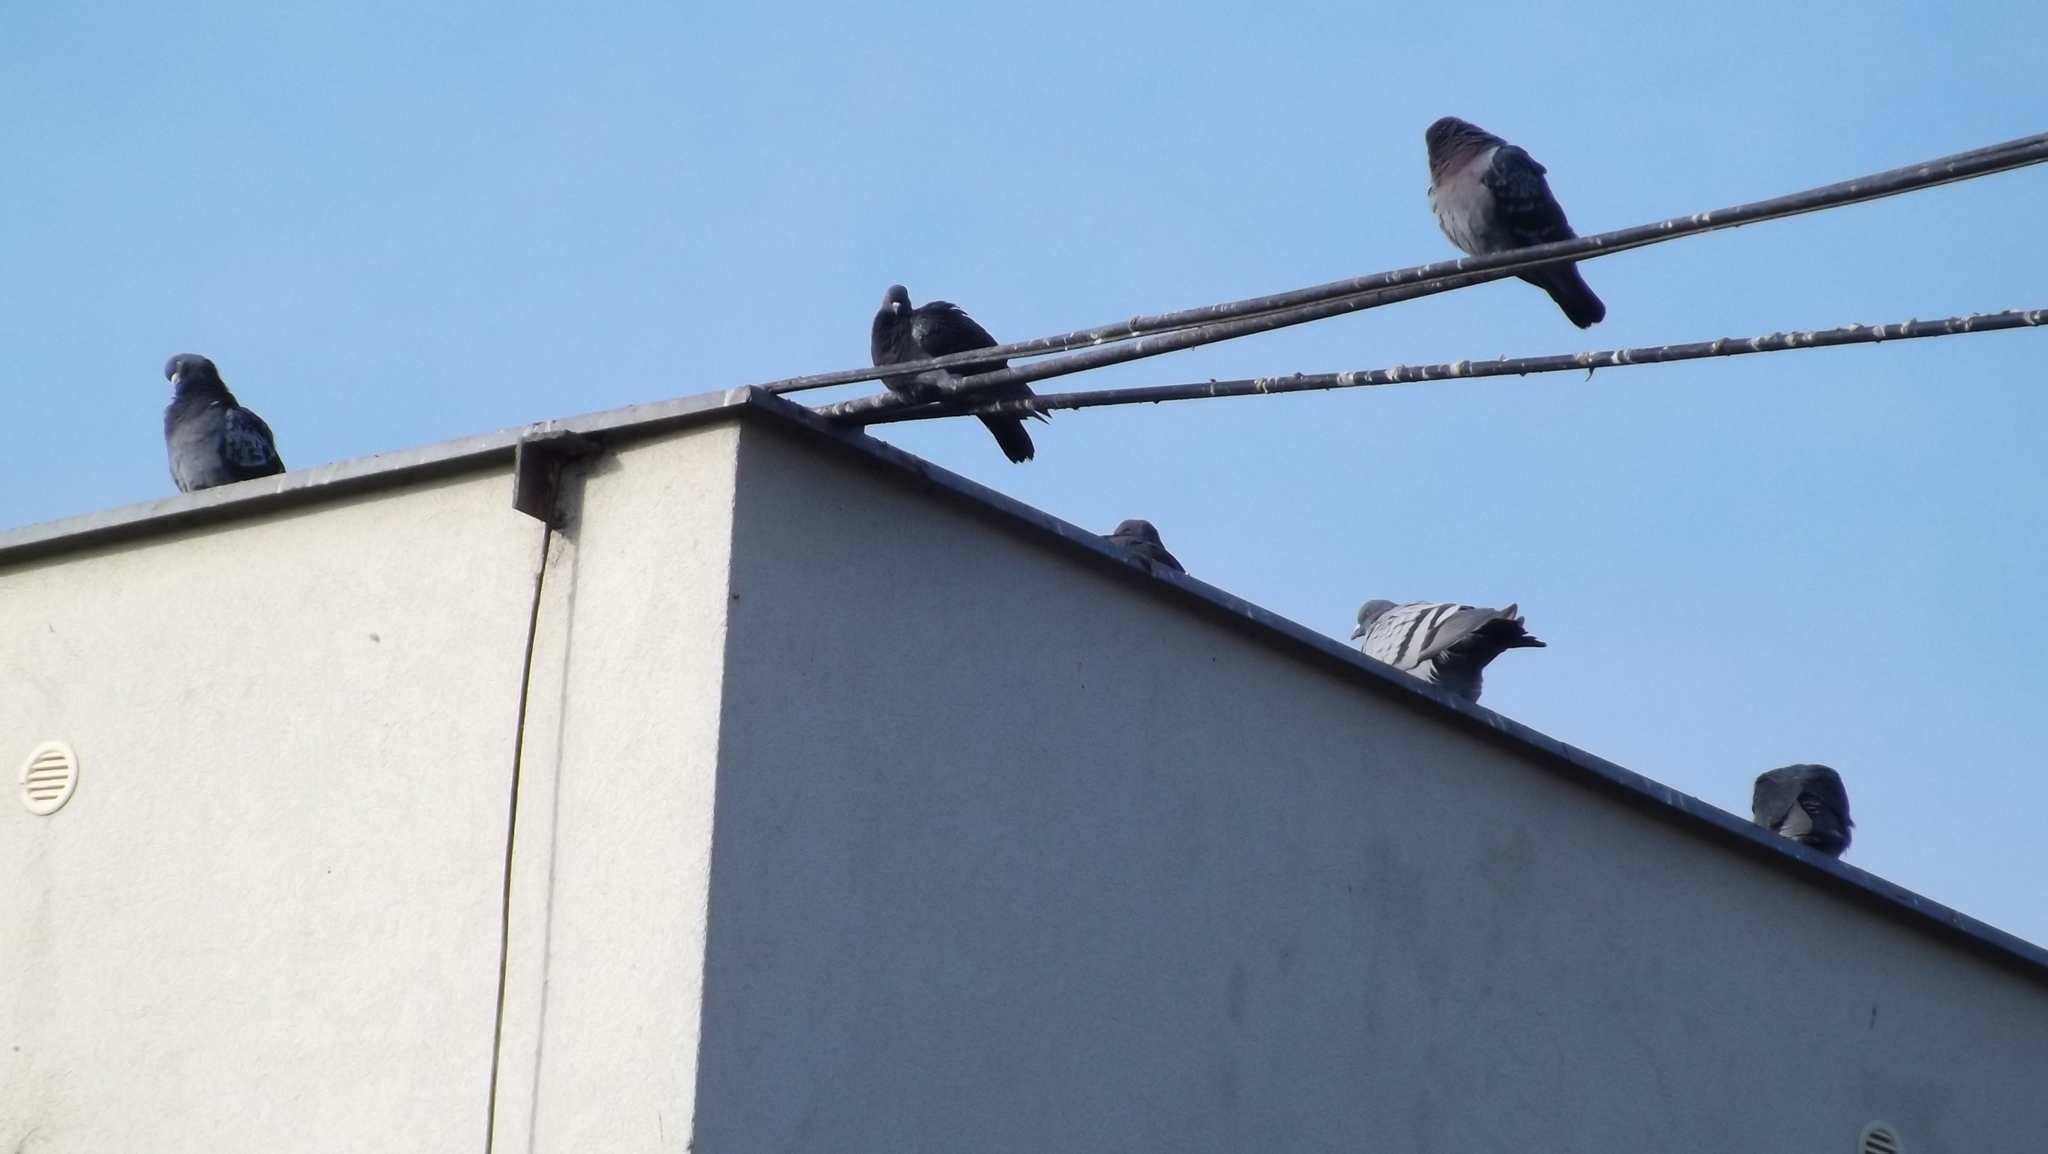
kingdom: Animalia
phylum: Chordata
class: Aves
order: Columbiformes
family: Columbidae
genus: Columba
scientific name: Columba livia
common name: Rock pigeon
